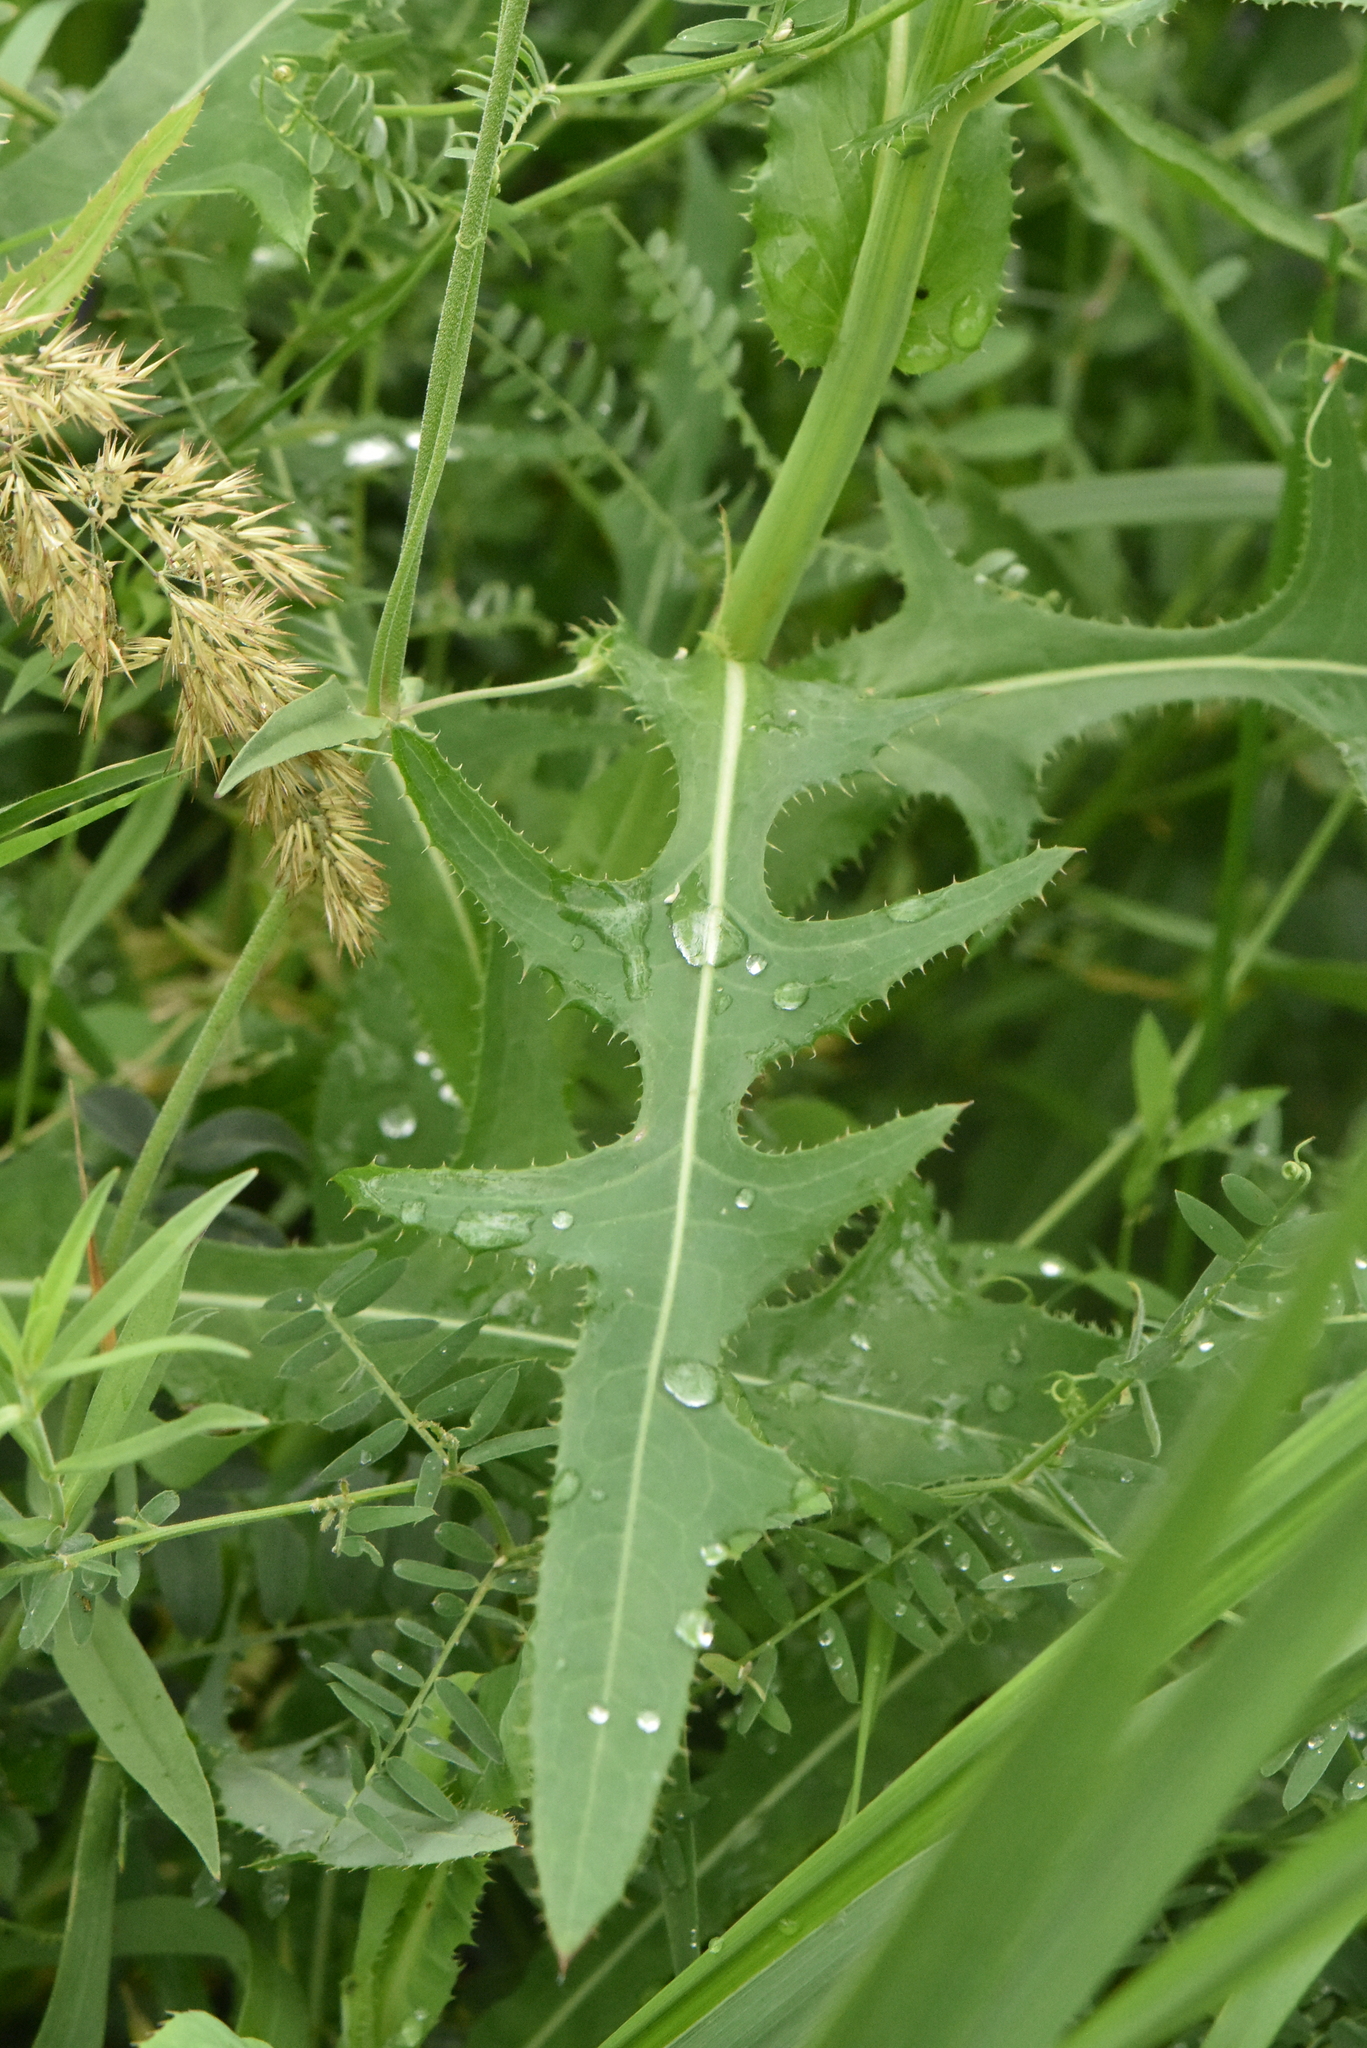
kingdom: Plantae
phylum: Tracheophyta
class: Magnoliopsida
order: Asterales
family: Asteraceae
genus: Sonchus
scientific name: Sonchus arvensis
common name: Perennial sow-thistle
